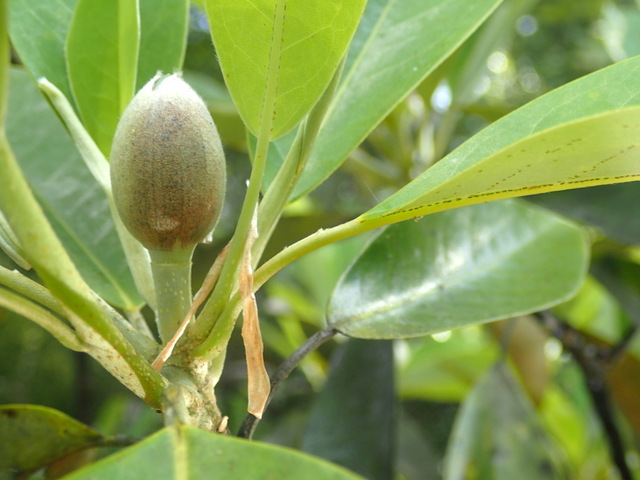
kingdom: Plantae
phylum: Tracheophyta
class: Magnoliopsida
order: Magnoliales
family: Magnoliaceae
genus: Magnolia
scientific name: Magnolia virginiana
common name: Swamp bay
